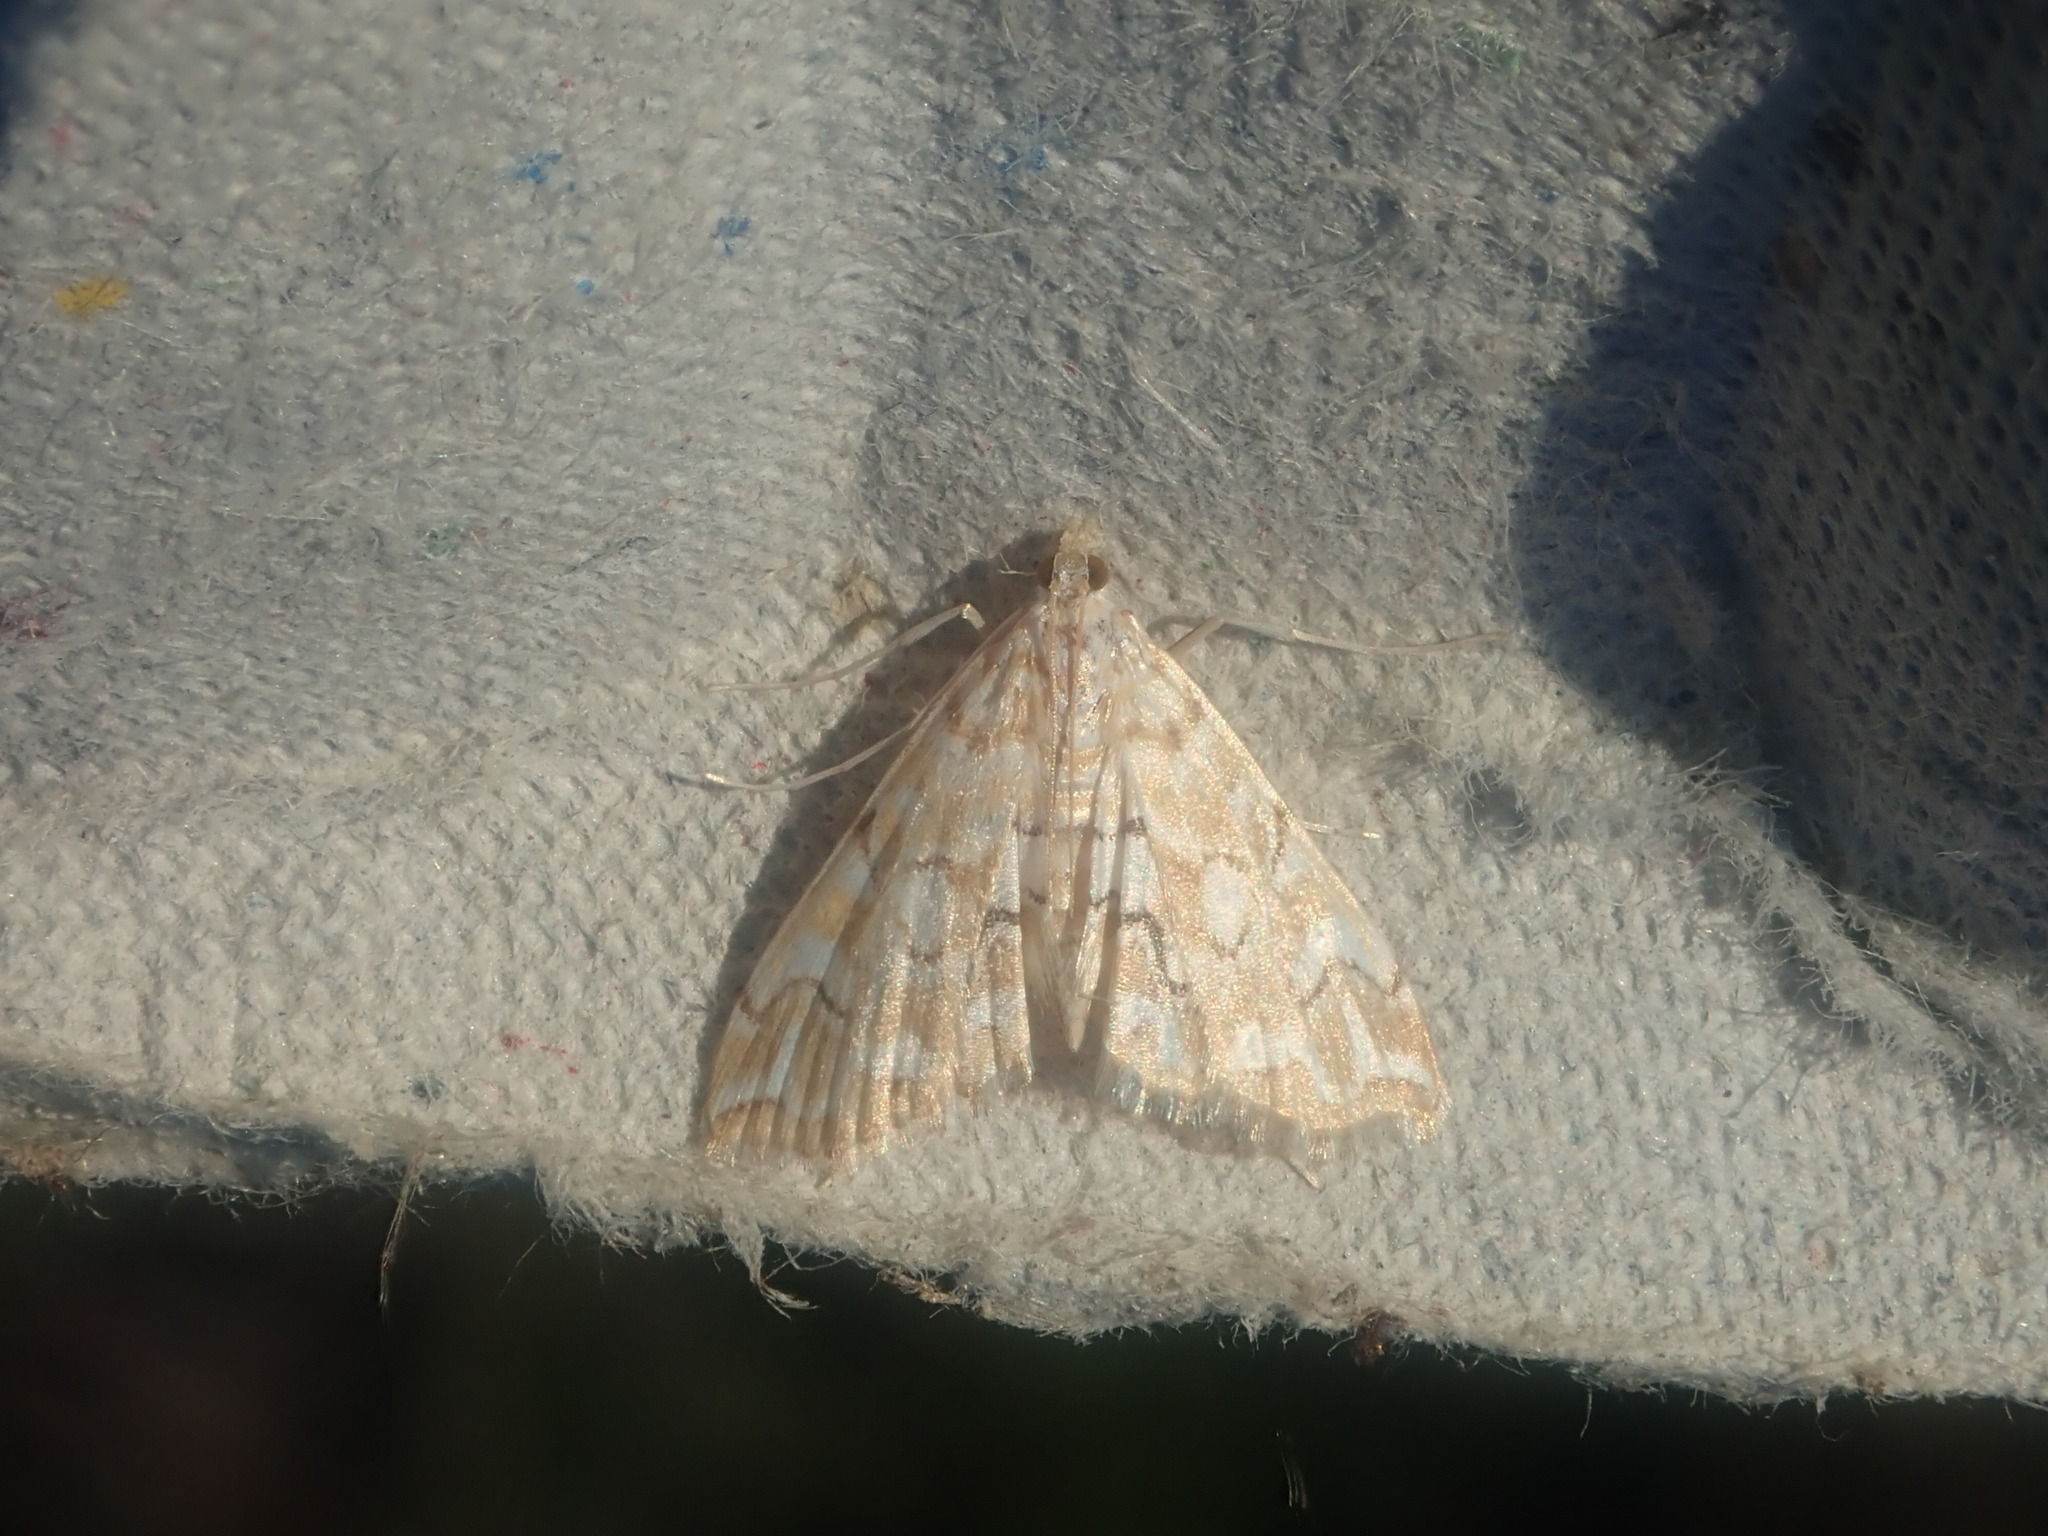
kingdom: Animalia
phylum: Arthropoda
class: Insecta
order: Lepidoptera
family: Crambidae
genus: Elophila
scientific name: Elophila icciusalis
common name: Pondside pyralid moth
